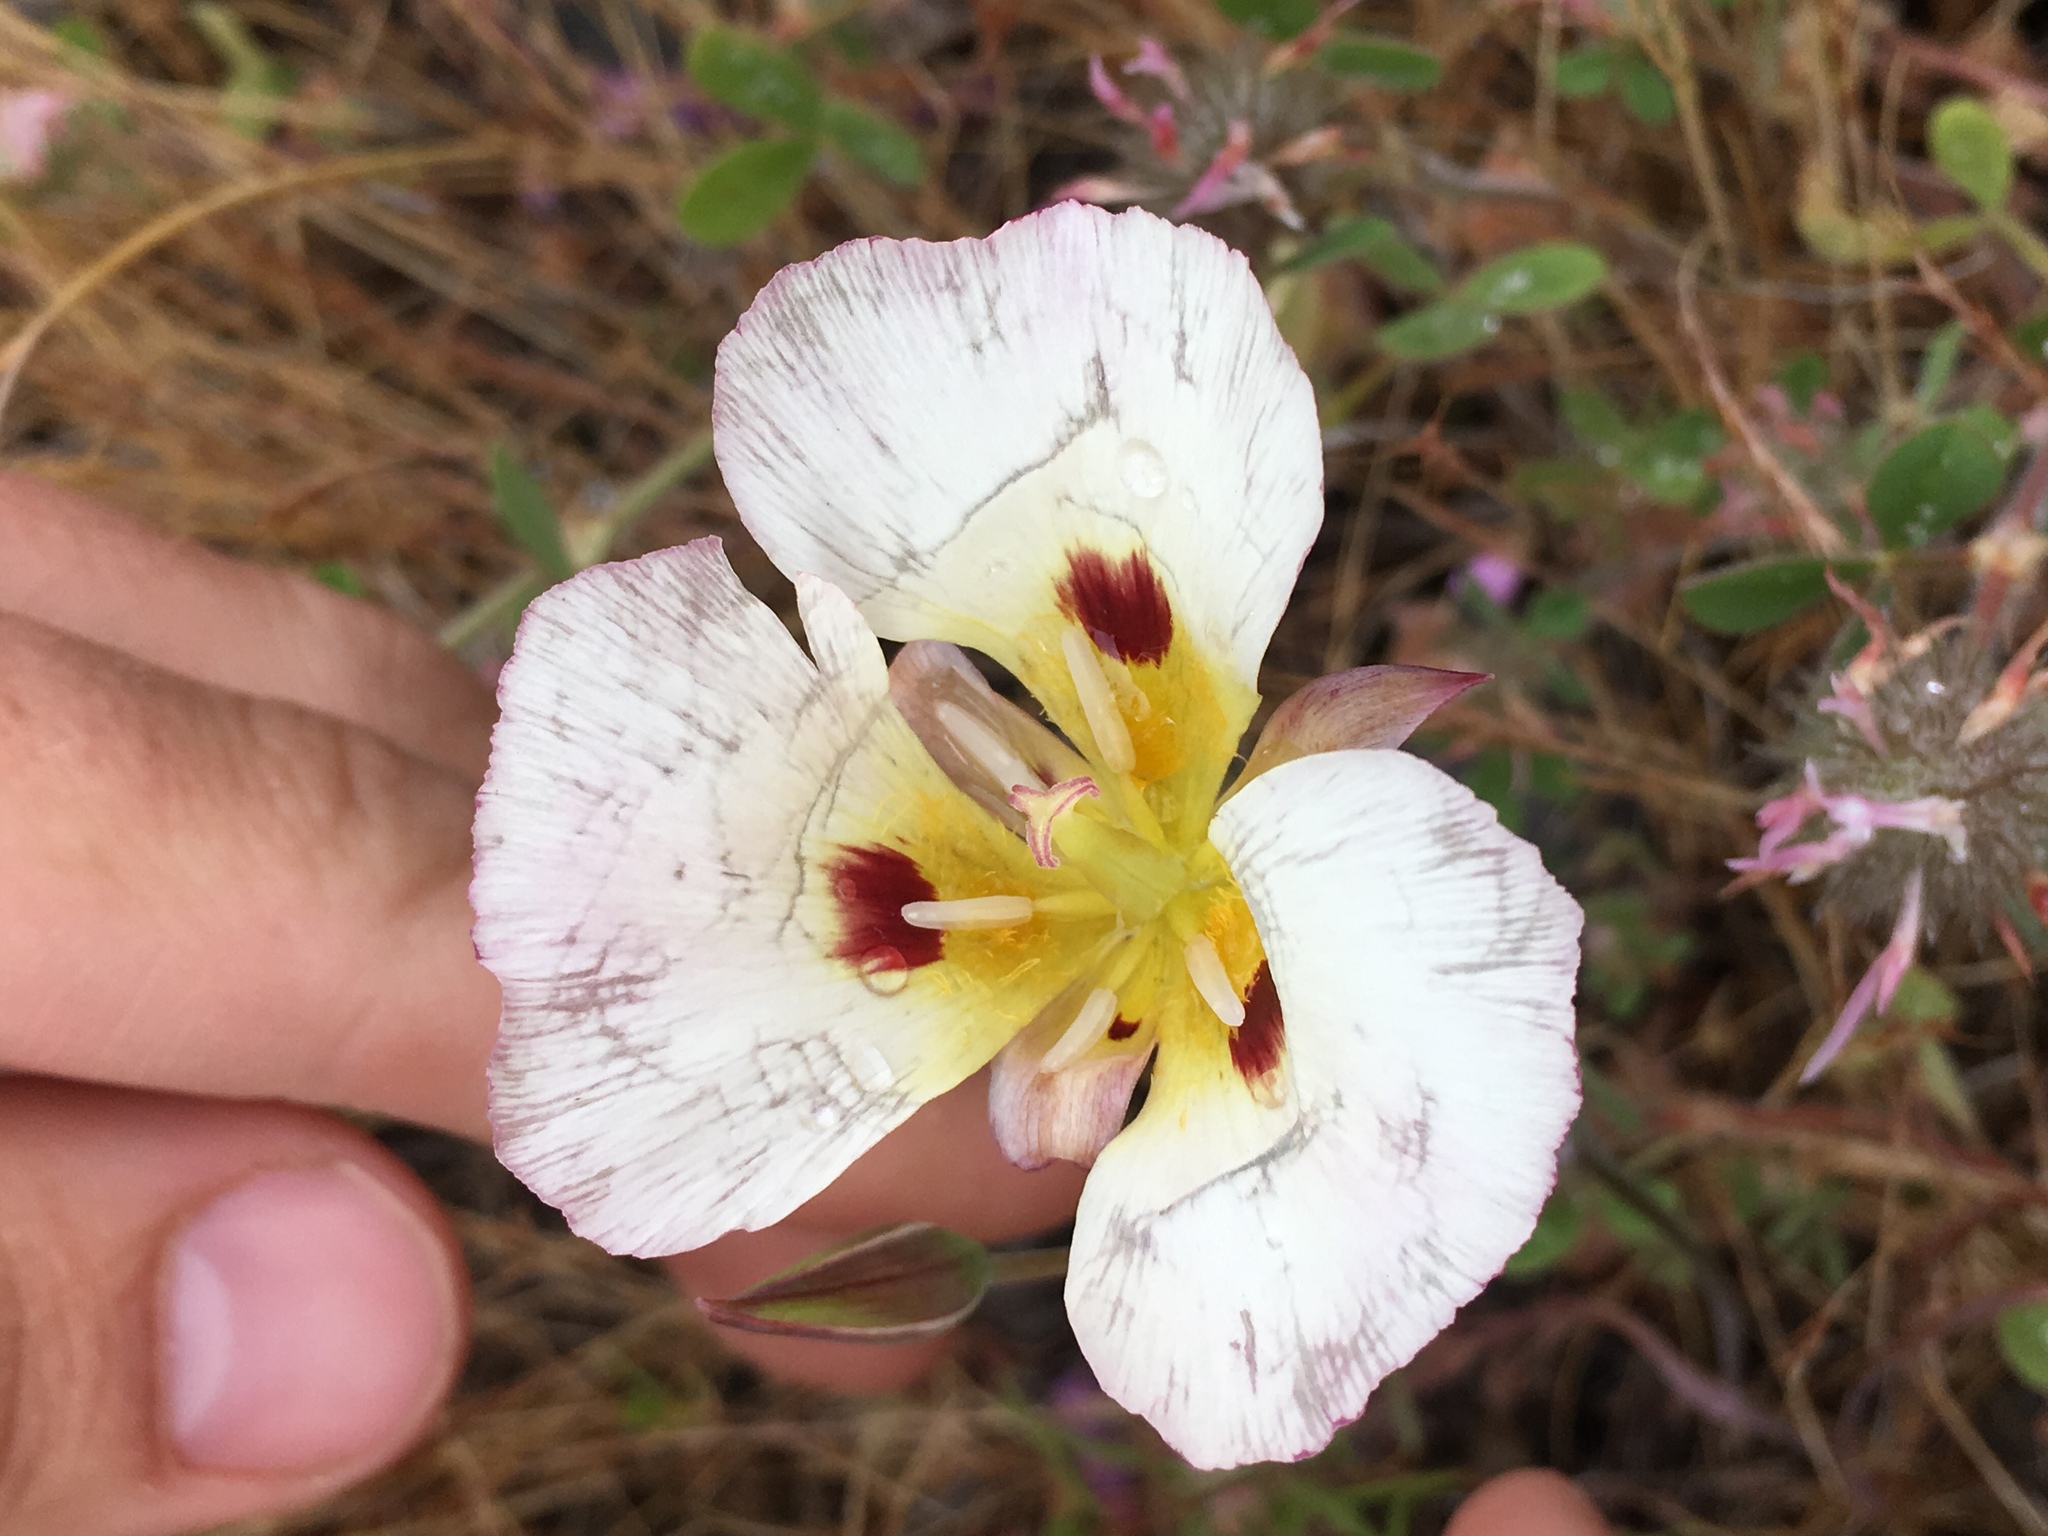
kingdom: Plantae
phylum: Tracheophyta
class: Liliopsida
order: Liliales
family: Liliaceae
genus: Calochortus
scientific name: Calochortus syntrophus
